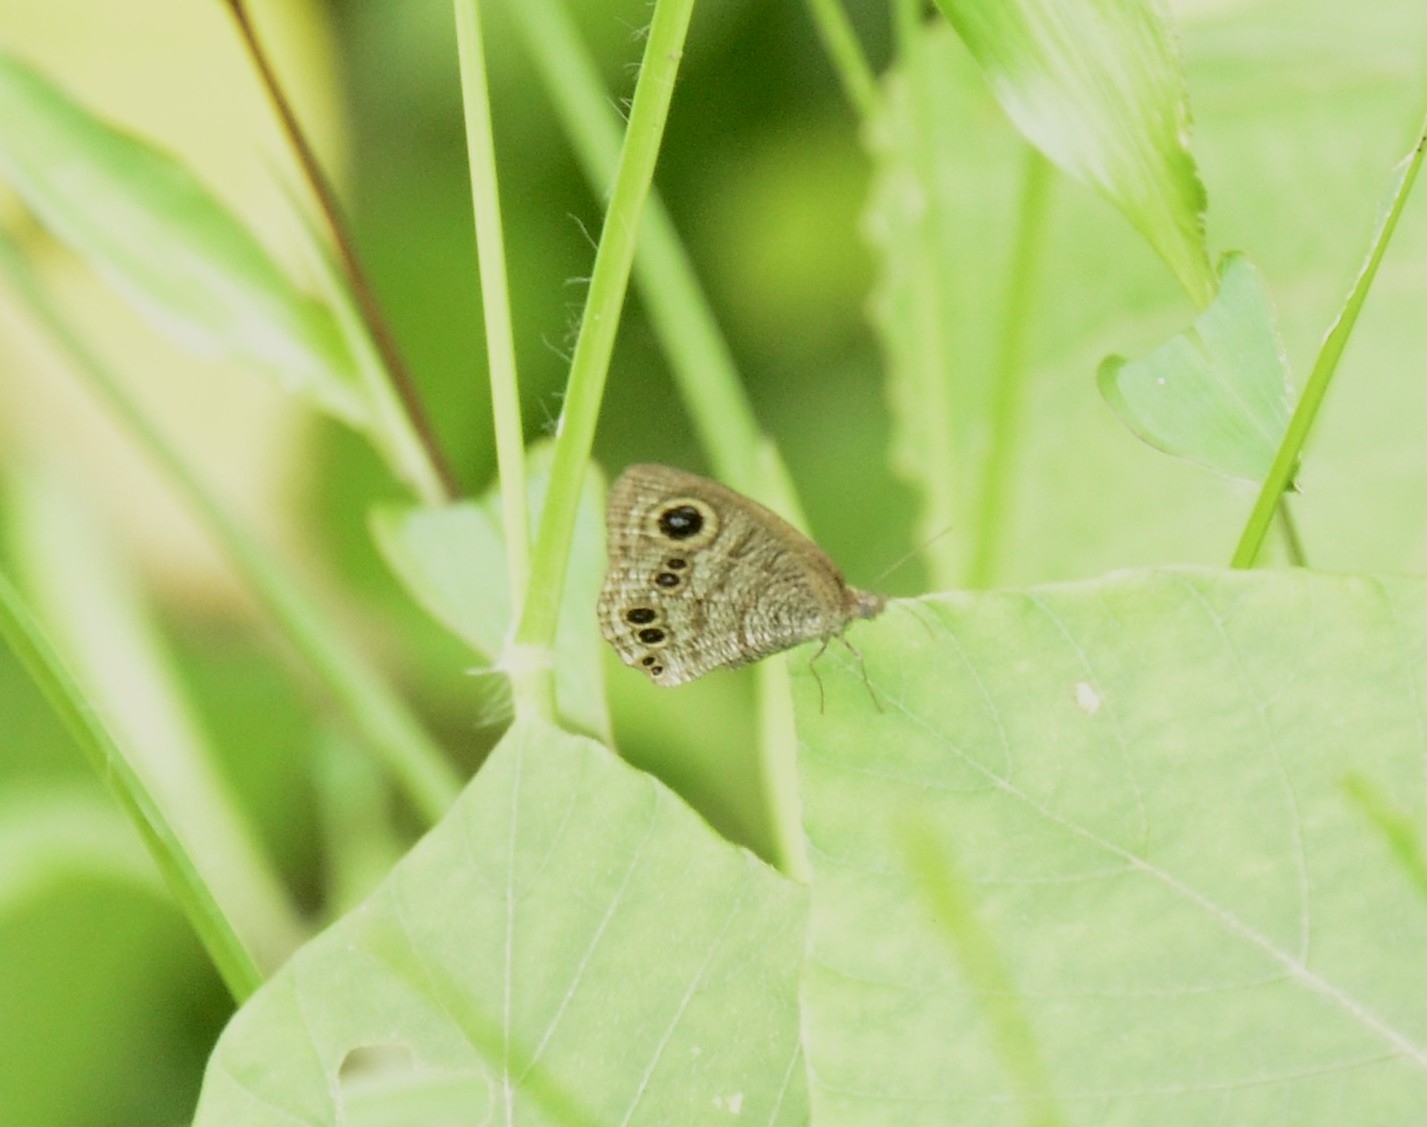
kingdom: Animalia
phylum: Arthropoda
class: Insecta
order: Lepidoptera
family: Nymphalidae
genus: Ypthima
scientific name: Ypthima baldus
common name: Common five-ring
